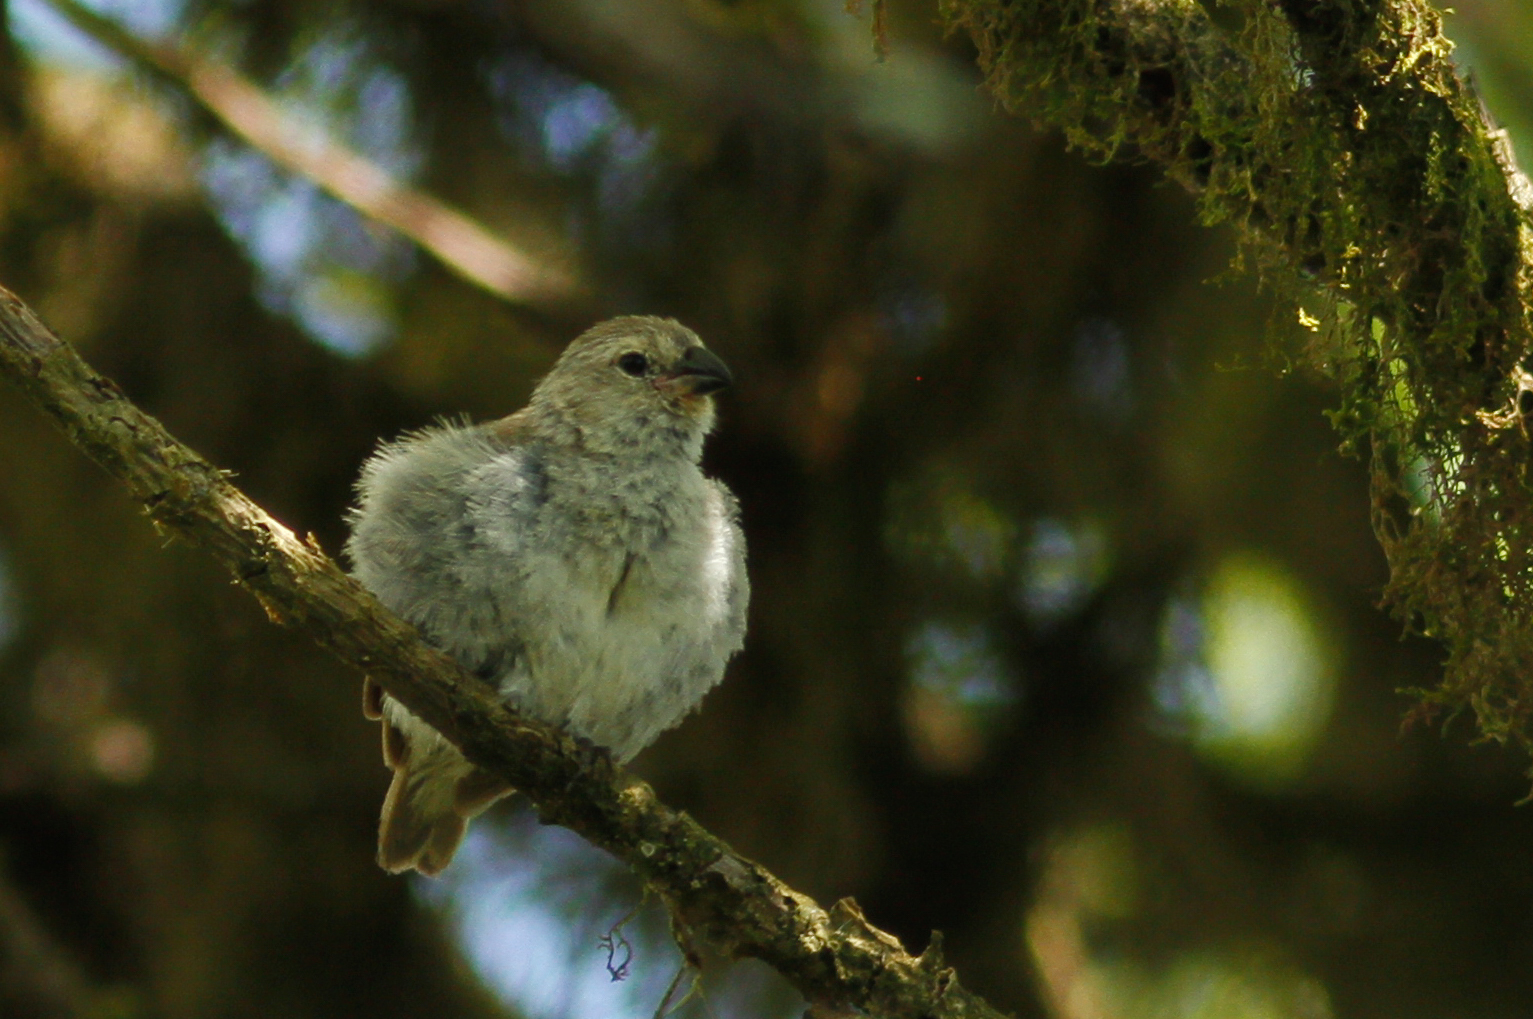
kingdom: Animalia
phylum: Chordata
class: Aves
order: Passeriformes
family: Thraupidae
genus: Camarhynchus
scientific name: Camarhynchus parvulus
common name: Small tree finch
